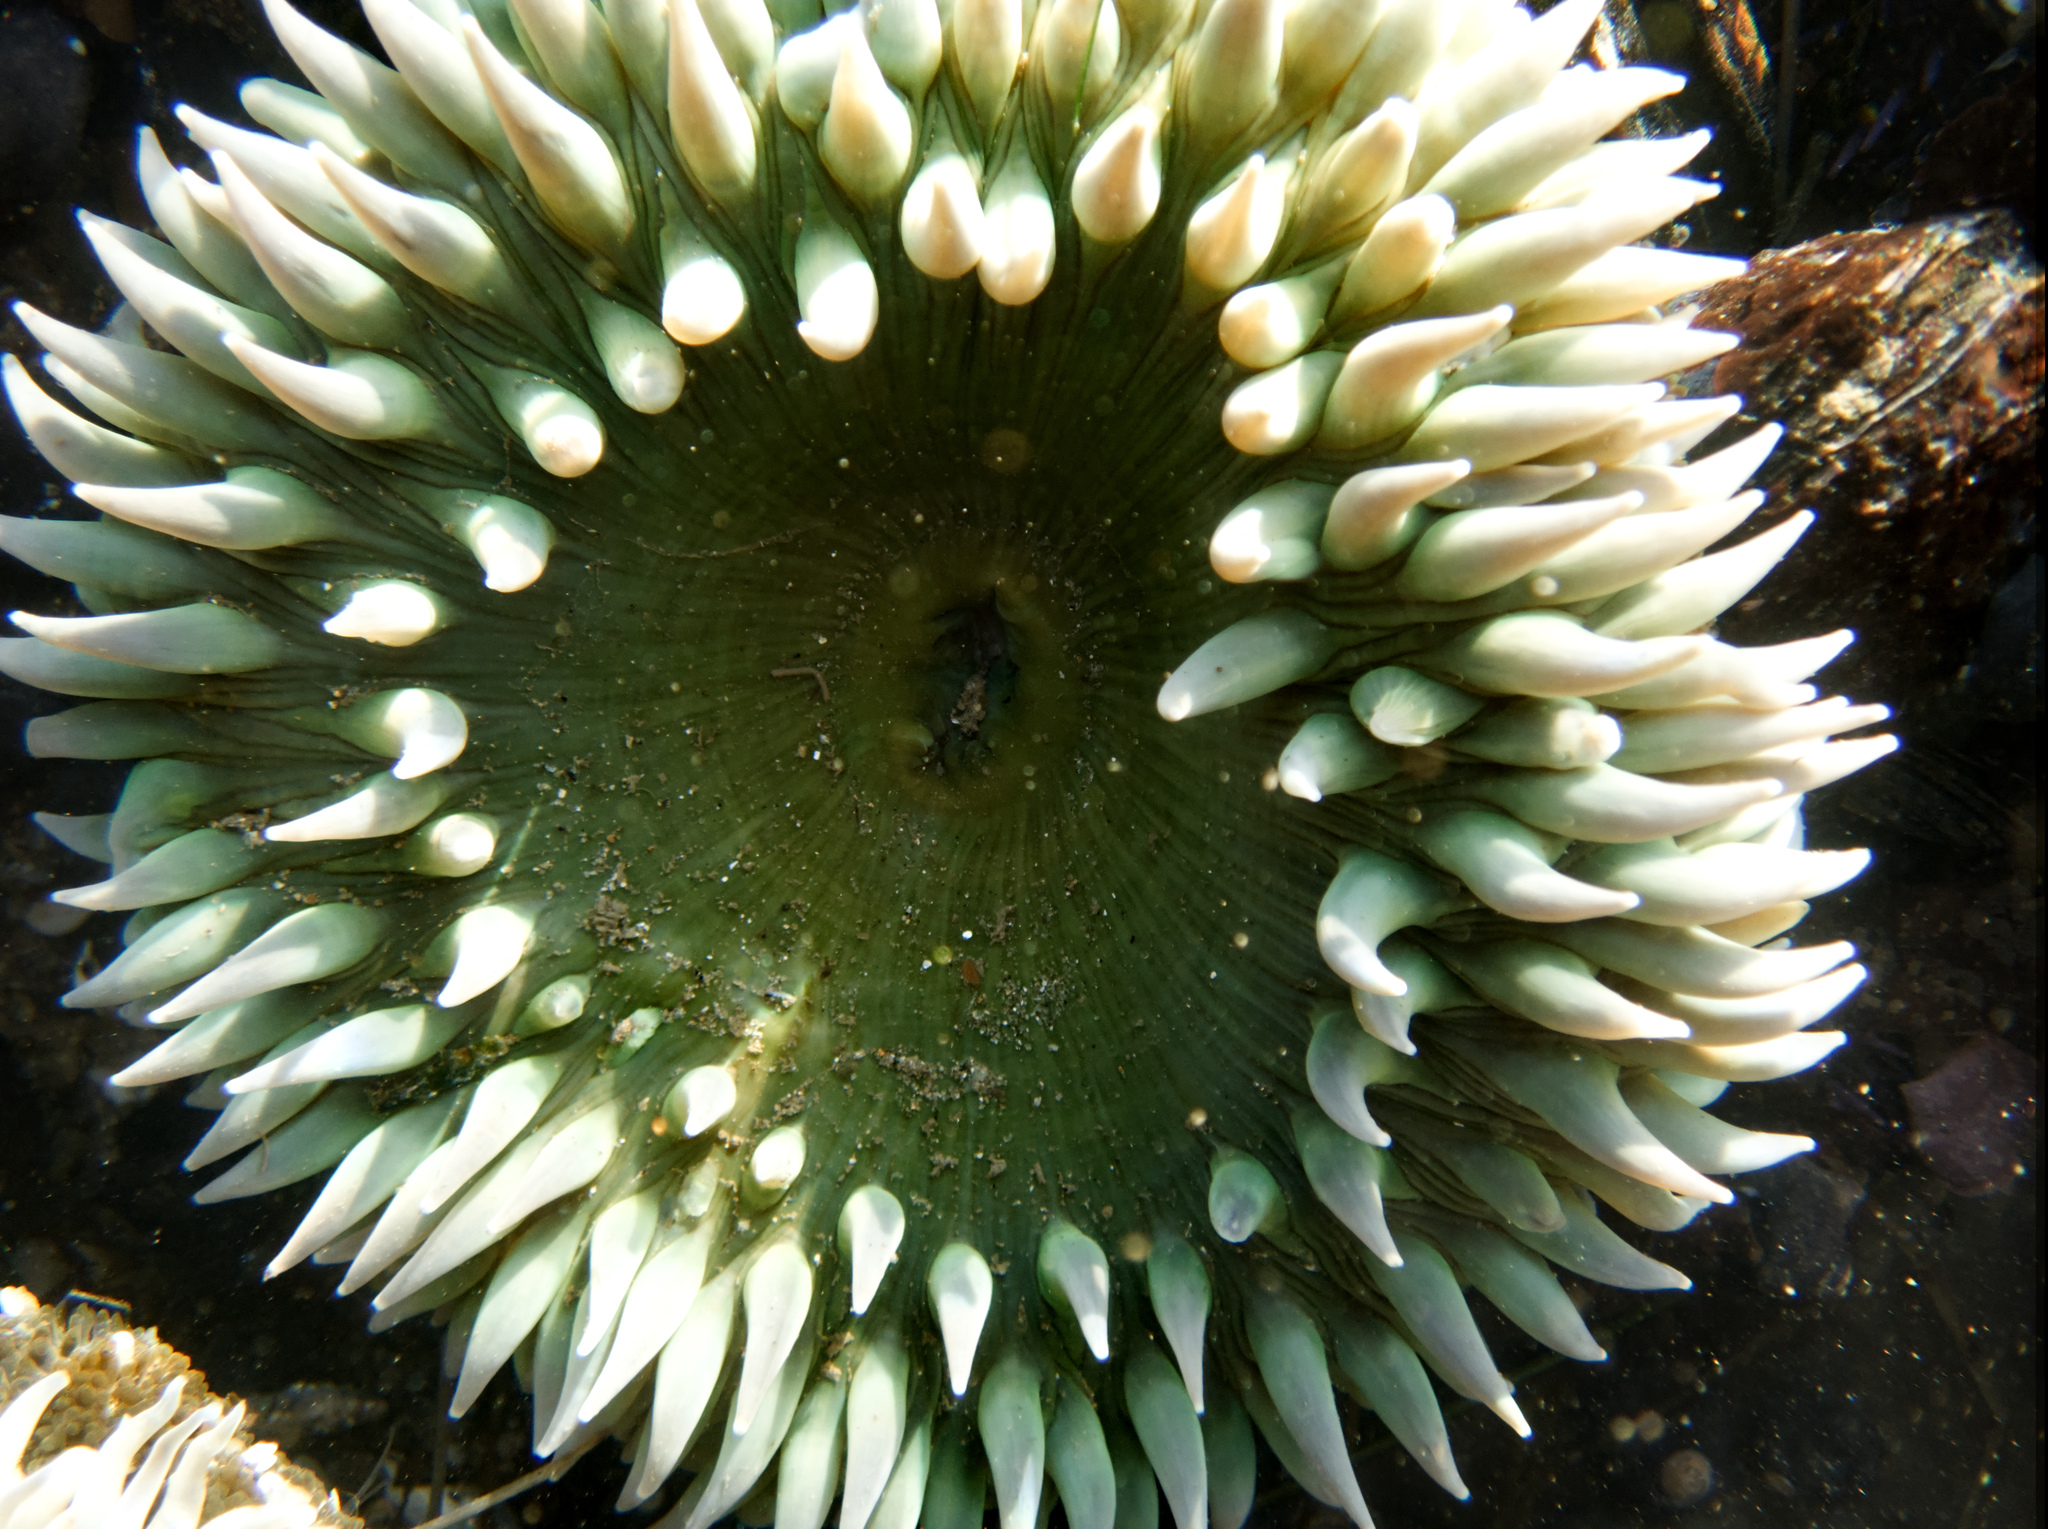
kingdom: Animalia
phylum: Cnidaria
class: Anthozoa
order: Actiniaria
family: Actiniidae
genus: Anthopleura
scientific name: Anthopleura xanthogrammica
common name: Giant green anemone
